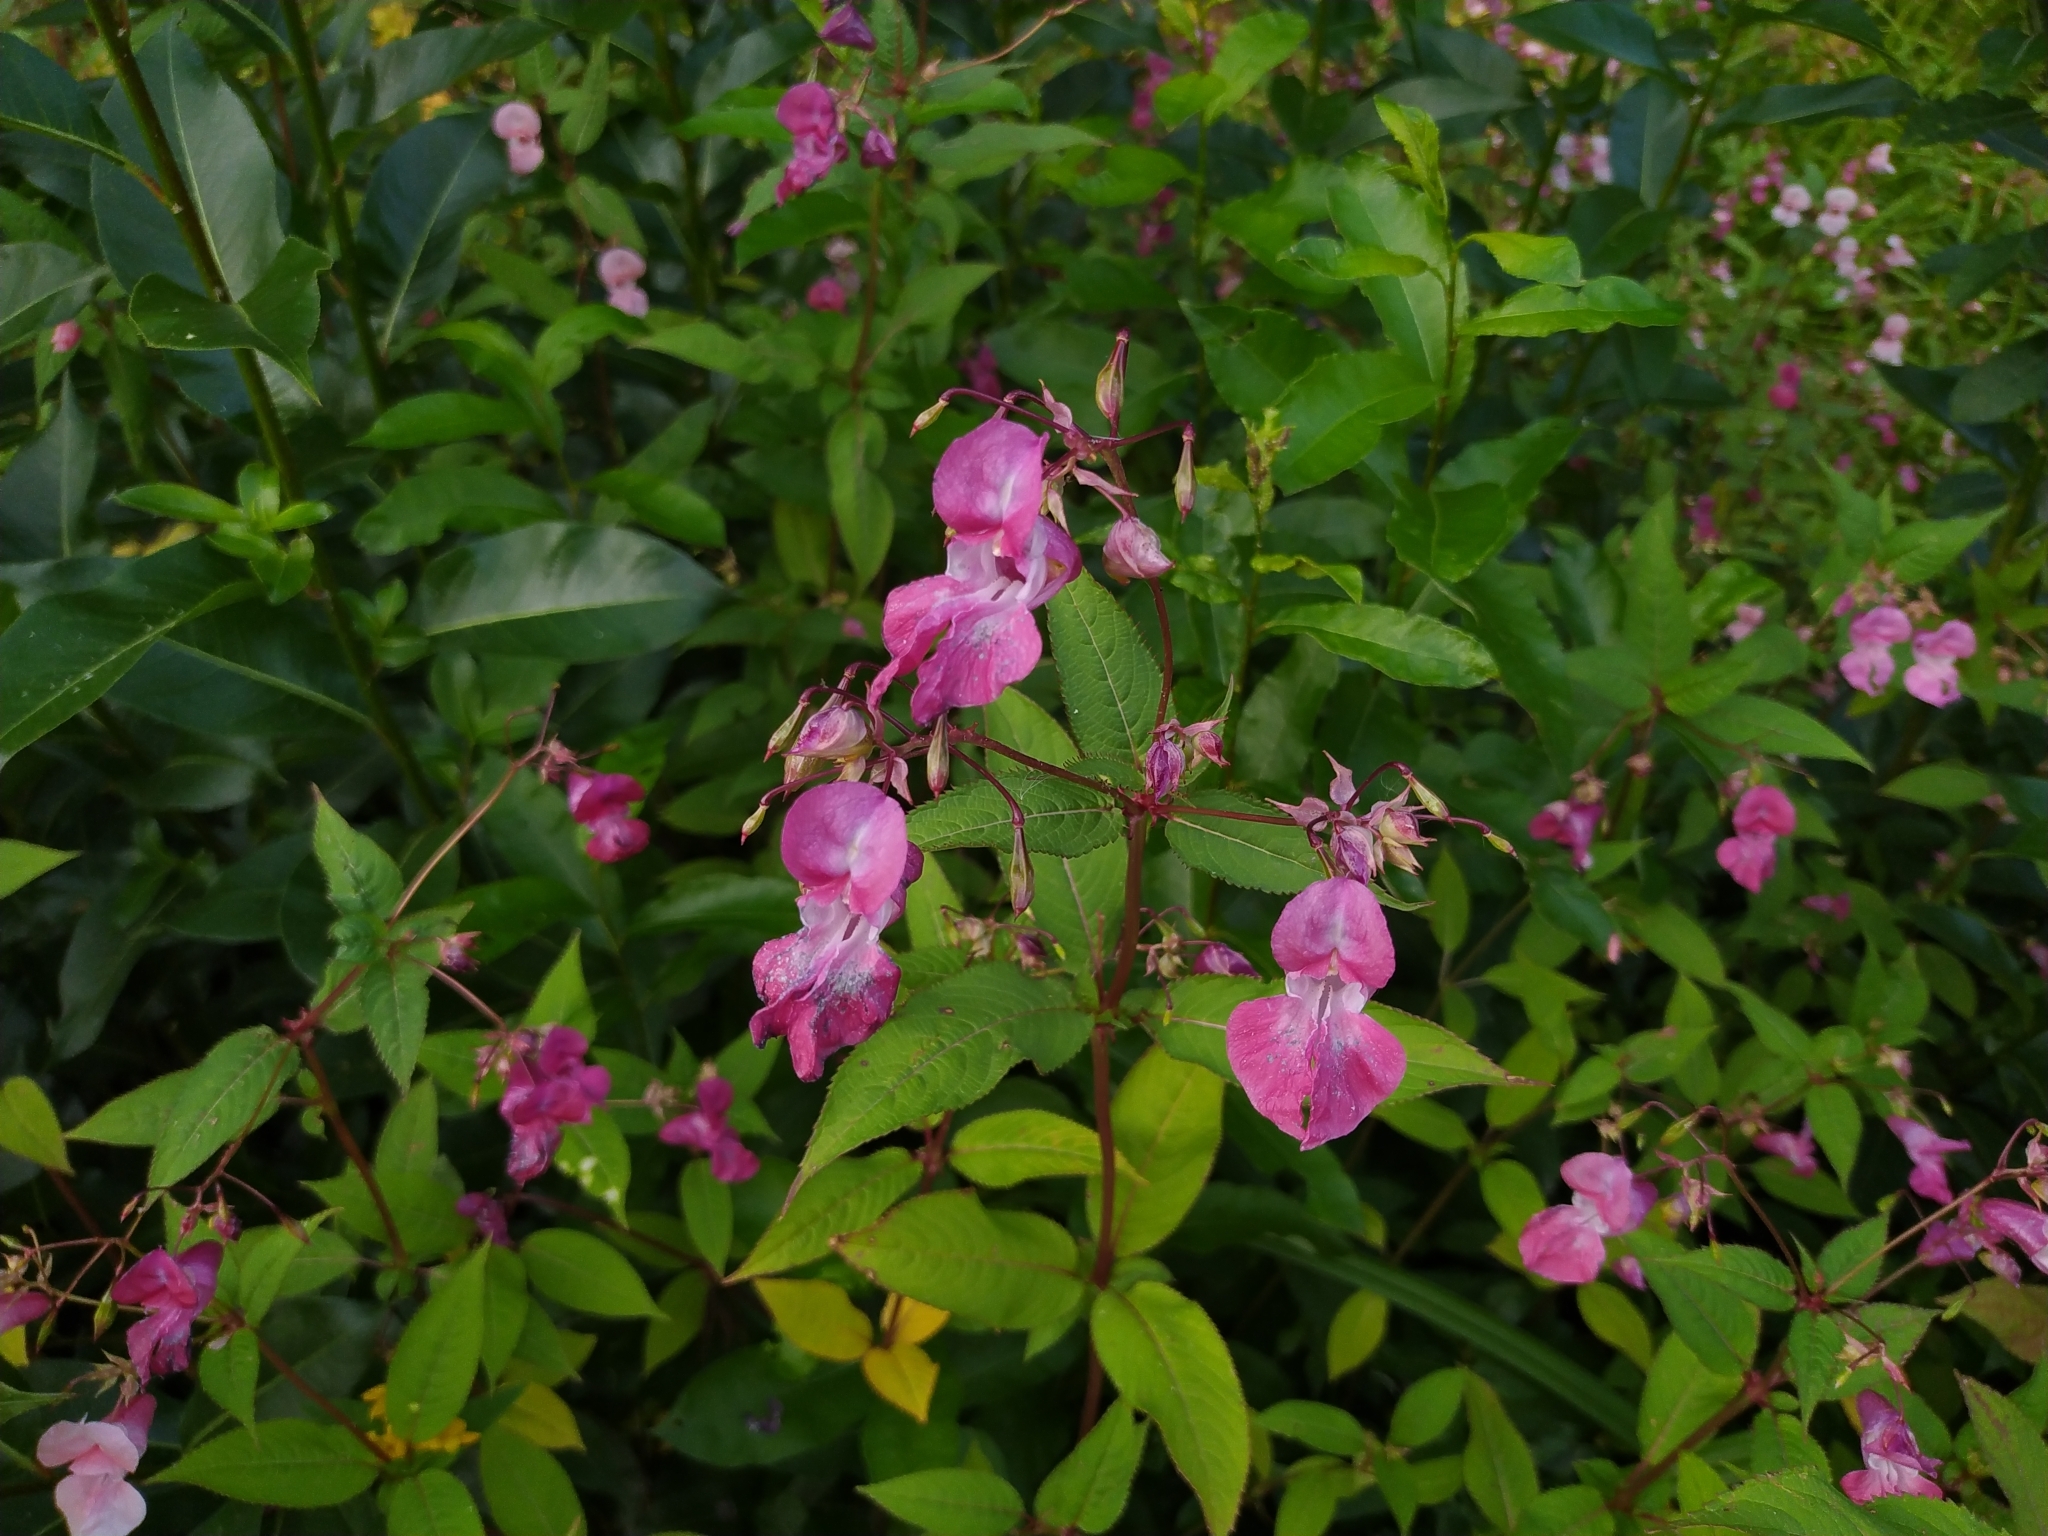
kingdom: Plantae
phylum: Tracheophyta
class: Magnoliopsida
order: Ericales
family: Balsaminaceae
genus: Impatiens
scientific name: Impatiens glandulifera
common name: Himalayan balsam
